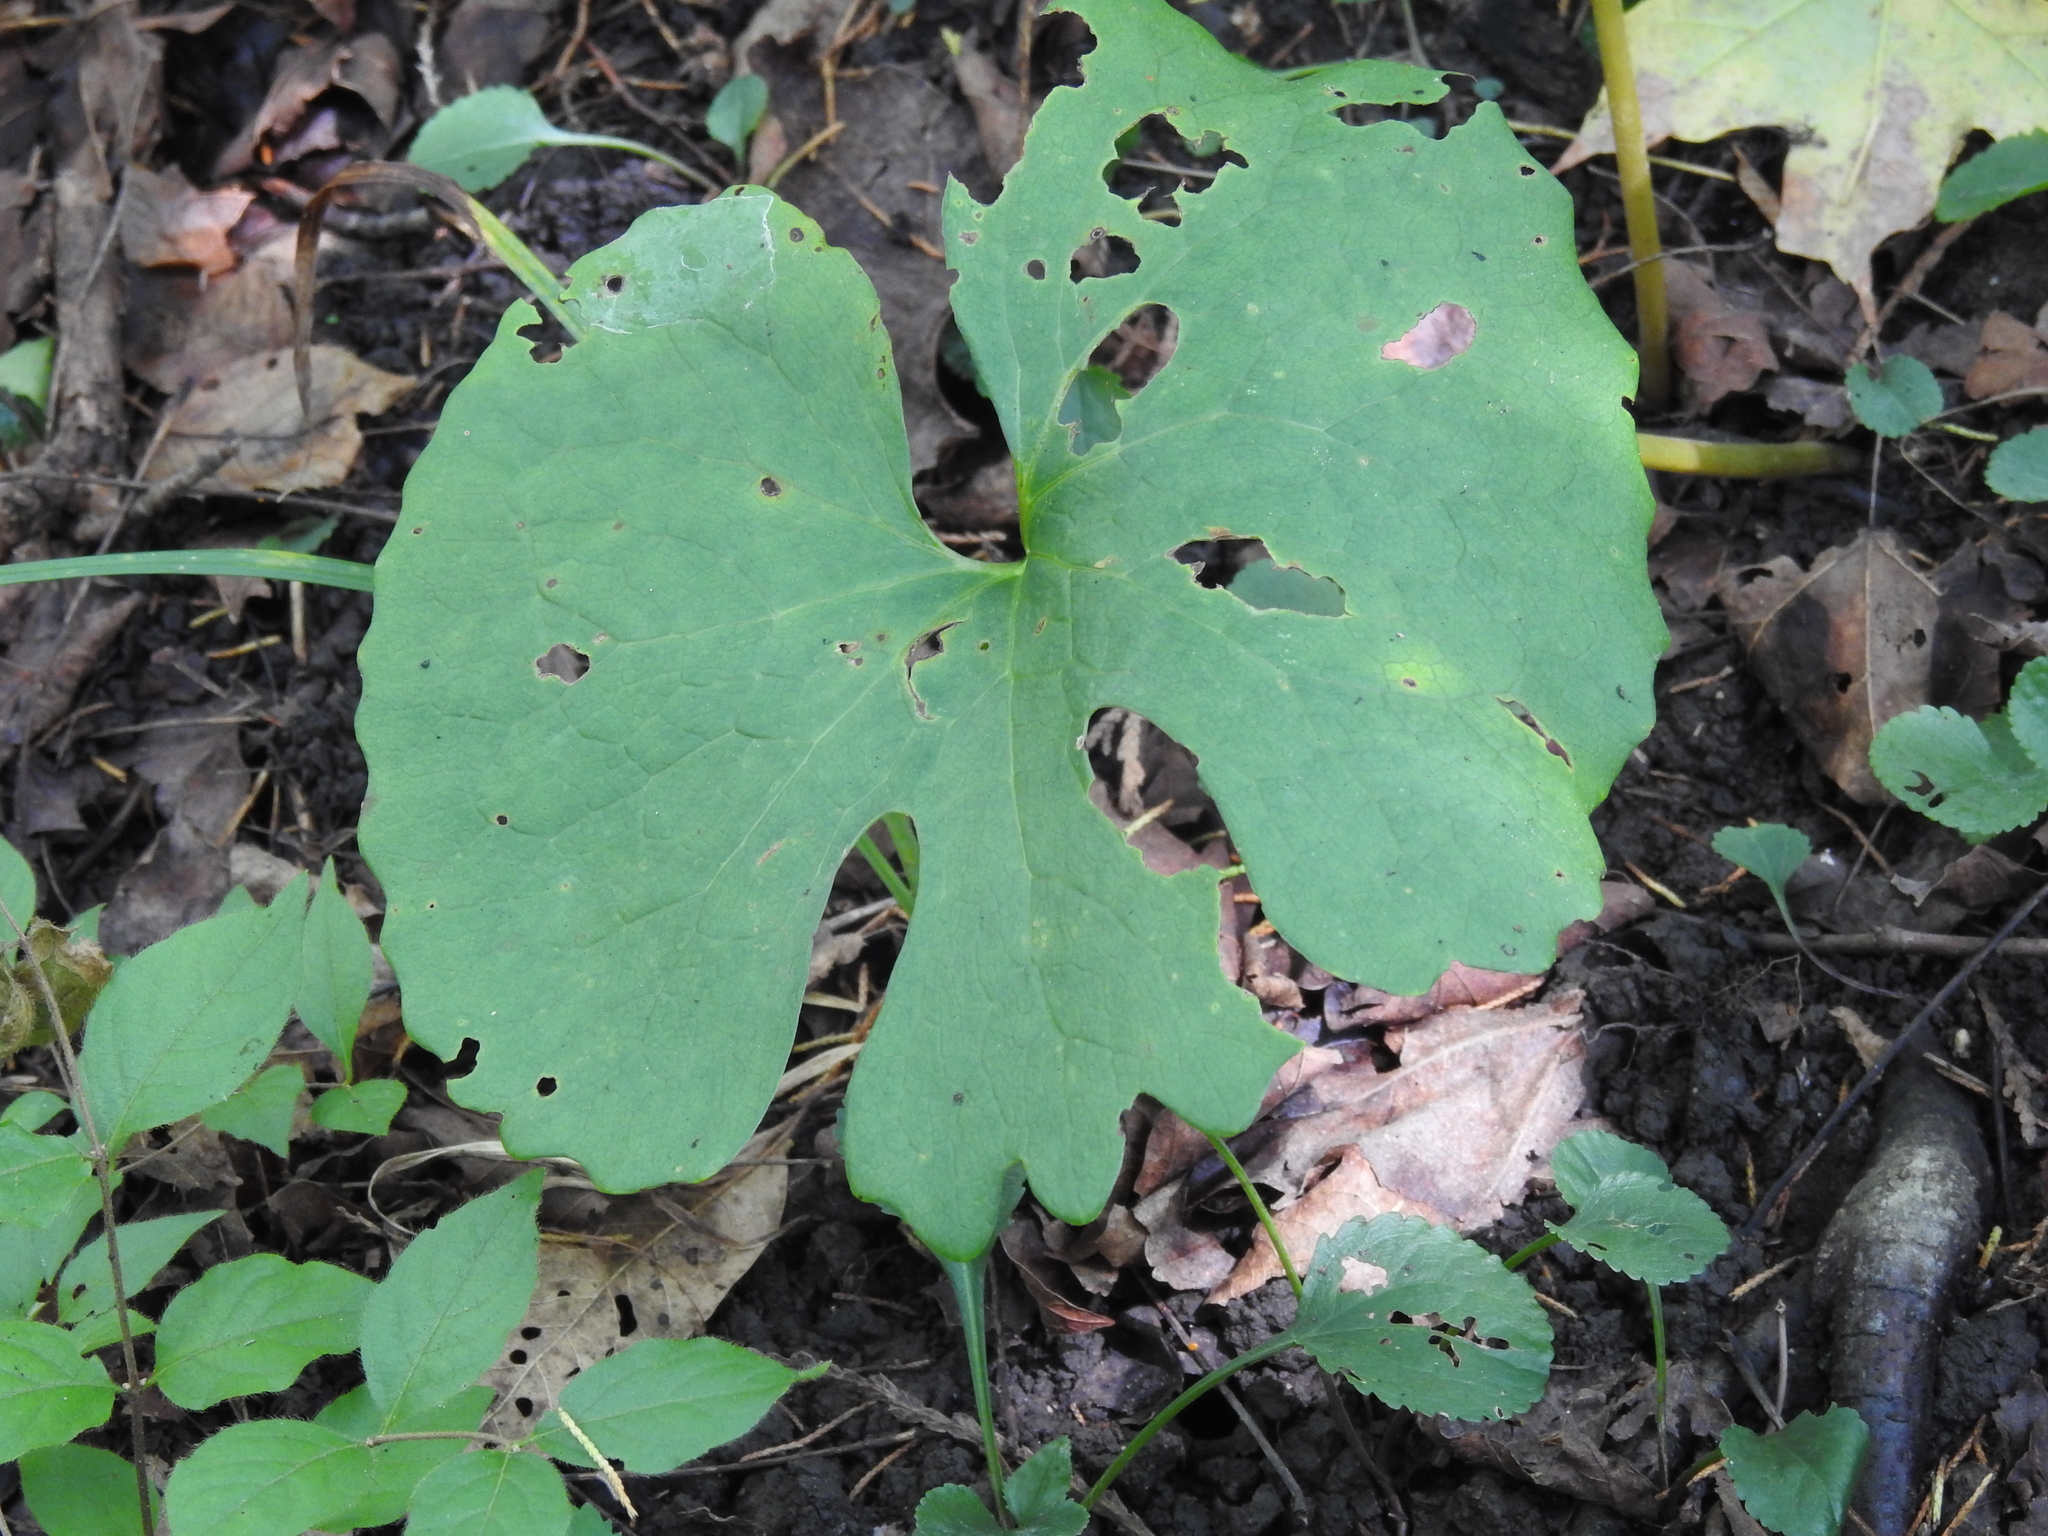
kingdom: Plantae
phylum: Tracheophyta
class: Magnoliopsida
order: Ranunculales
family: Papaveraceae
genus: Sanguinaria
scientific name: Sanguinaria canadensis
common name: Bloodroot
